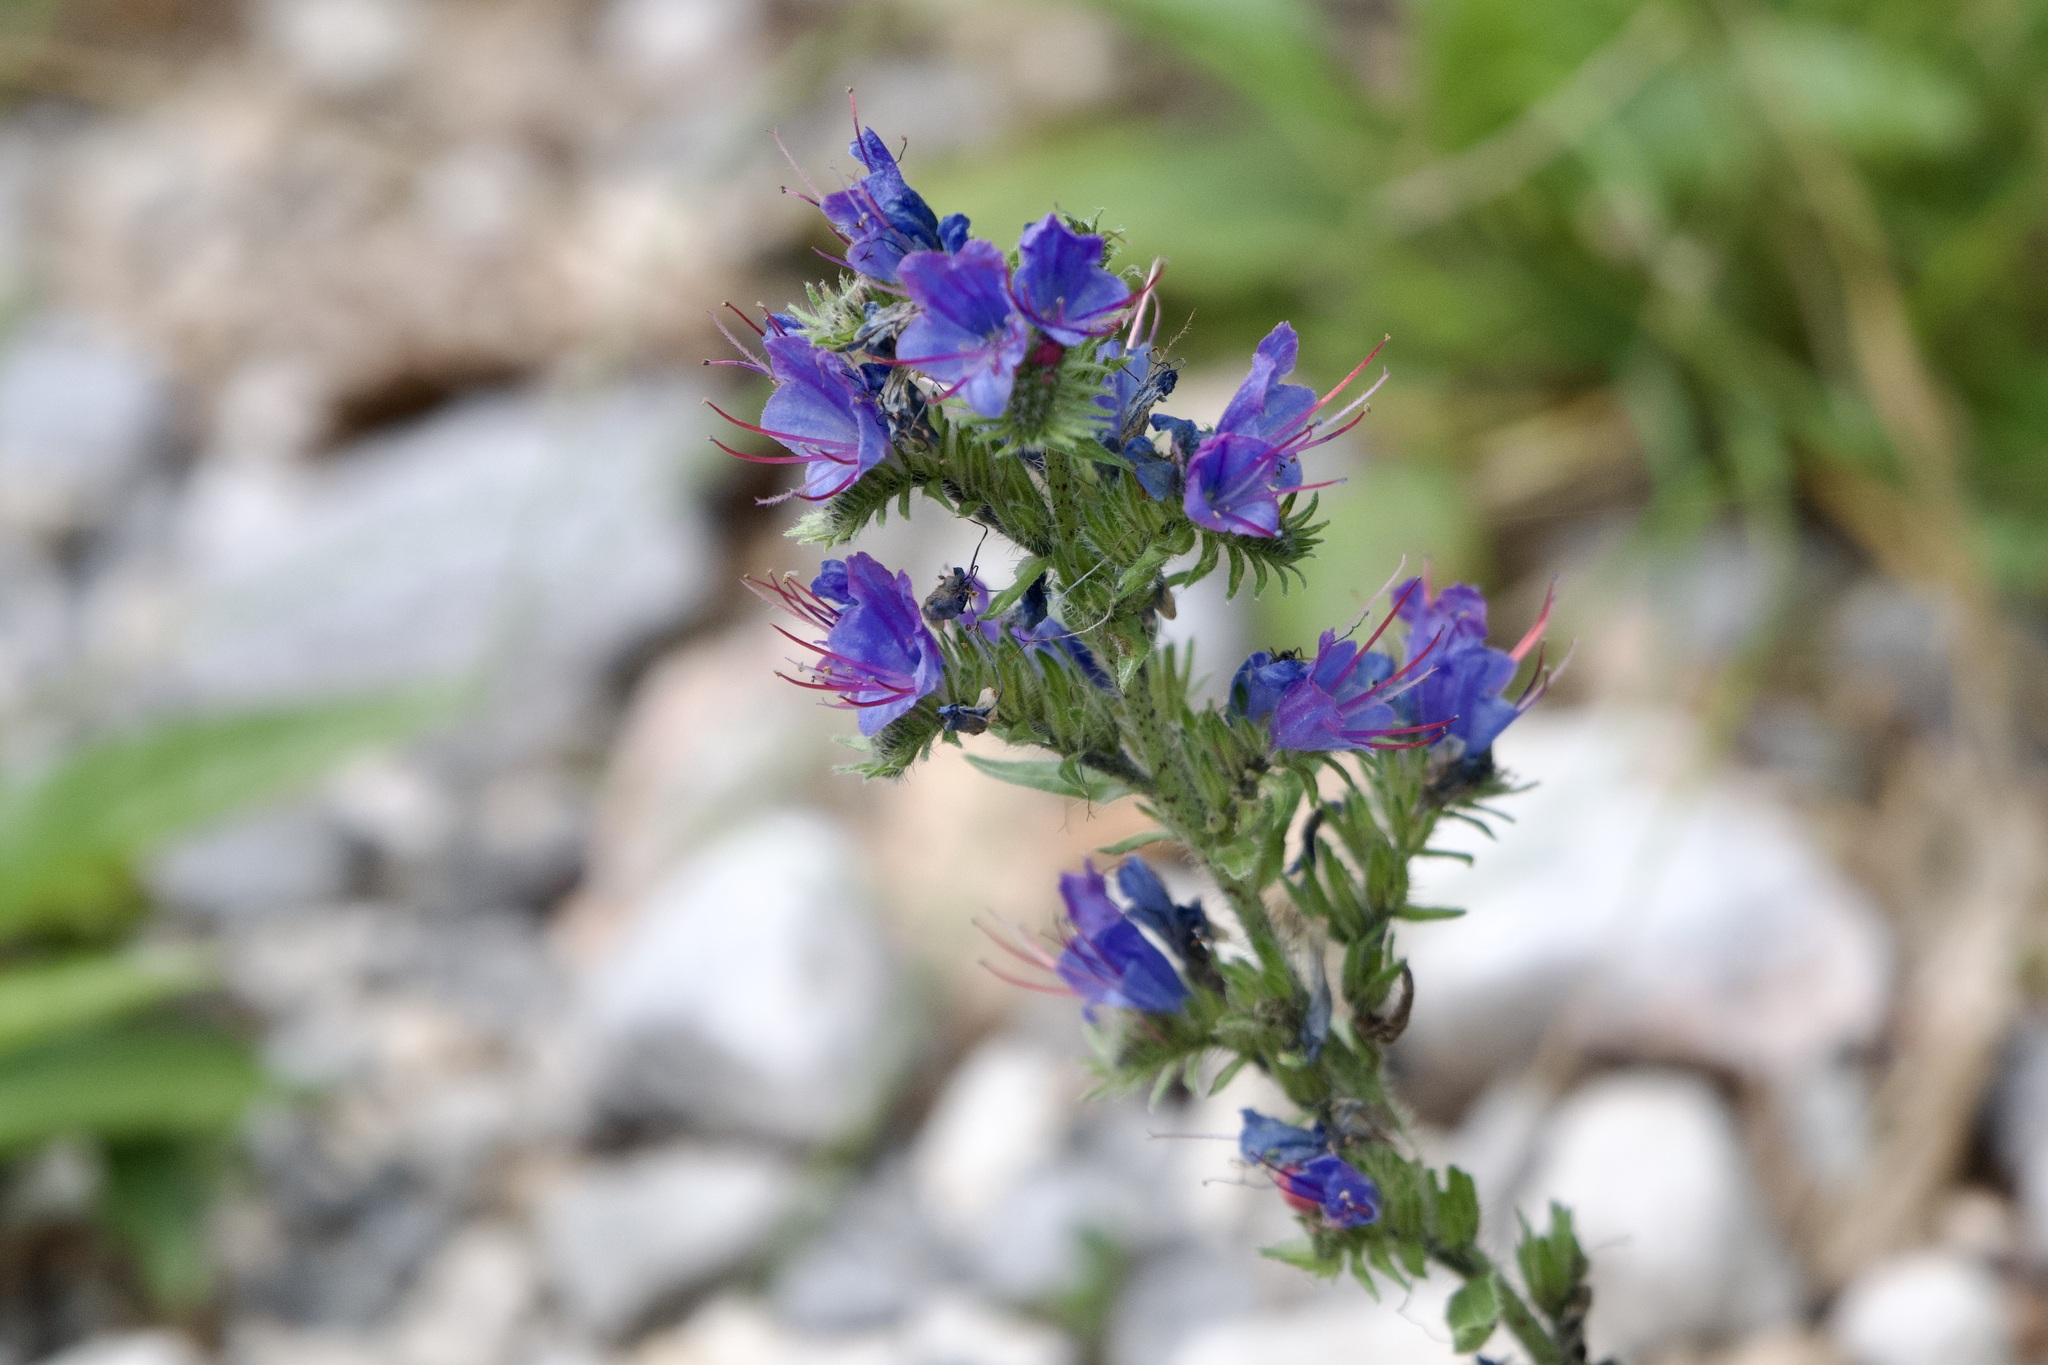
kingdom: Plantae
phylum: Tracheophyta
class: Magnoliopsida
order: Boraginales
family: Boraginaceae
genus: Echium
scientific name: Echium vulgare
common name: Common viper's bugloss
